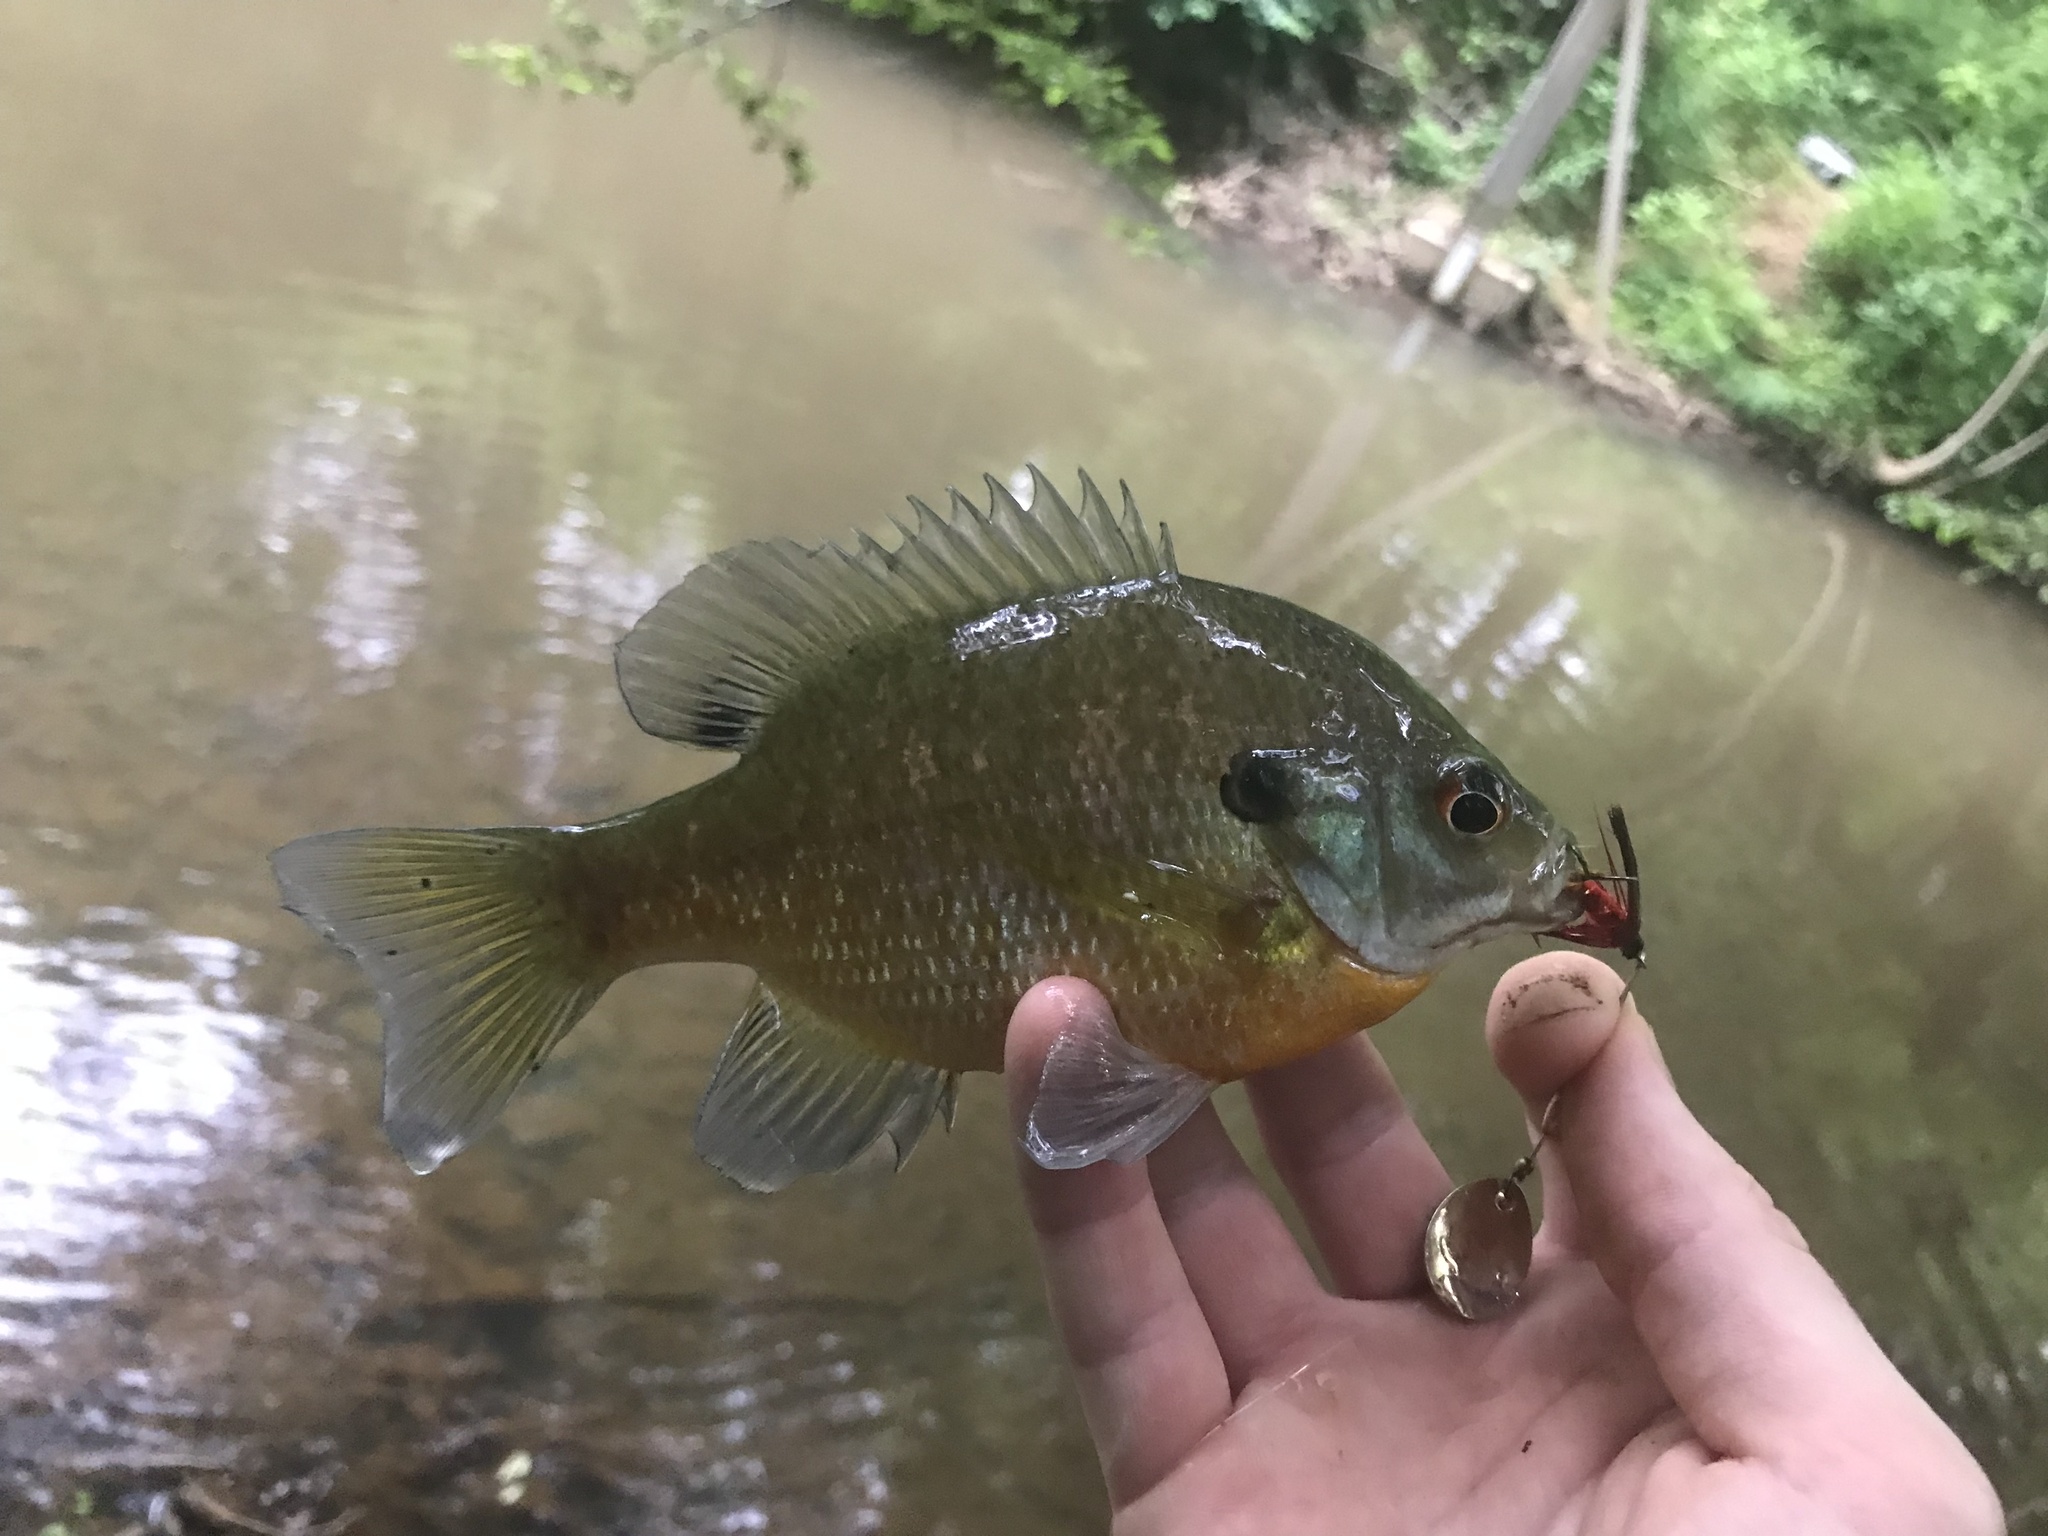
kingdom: Animalia
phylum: Chordata
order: Perciformes
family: Centrarchidae
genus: Lepomis
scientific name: Lepomis macrochirus
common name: Bluegill
